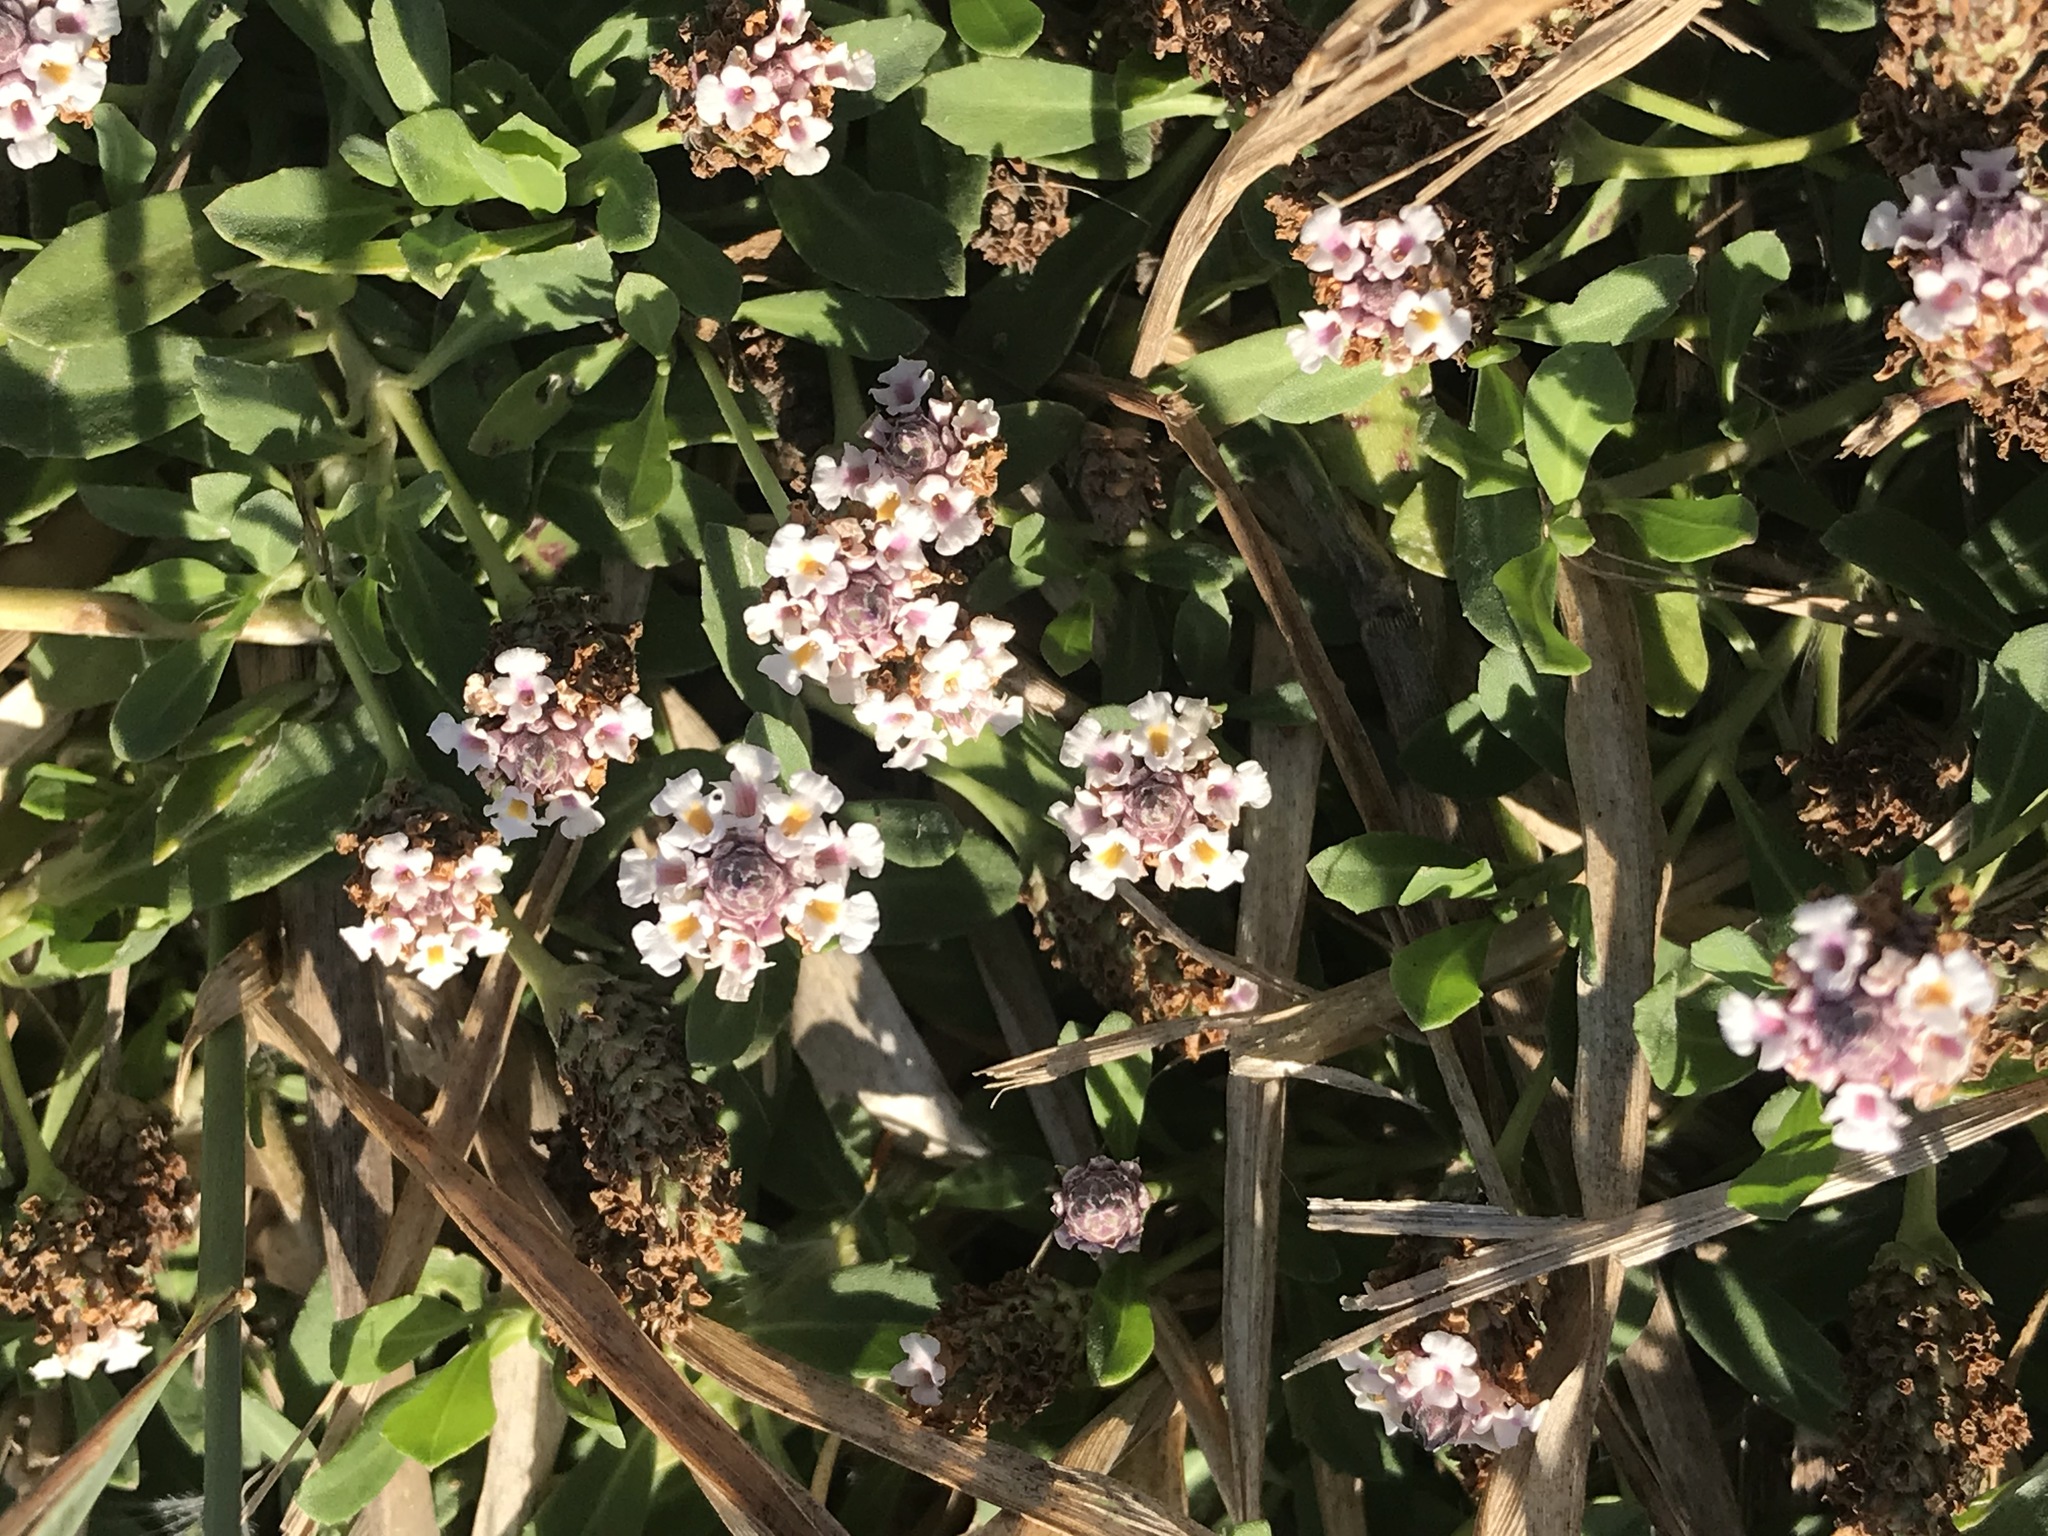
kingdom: Plantae
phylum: Tracheophyta
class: Magnoliopsida
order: Lamiales
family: Verbenaceae
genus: Phyla
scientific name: Phyla nodiflora
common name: Frogfruit
